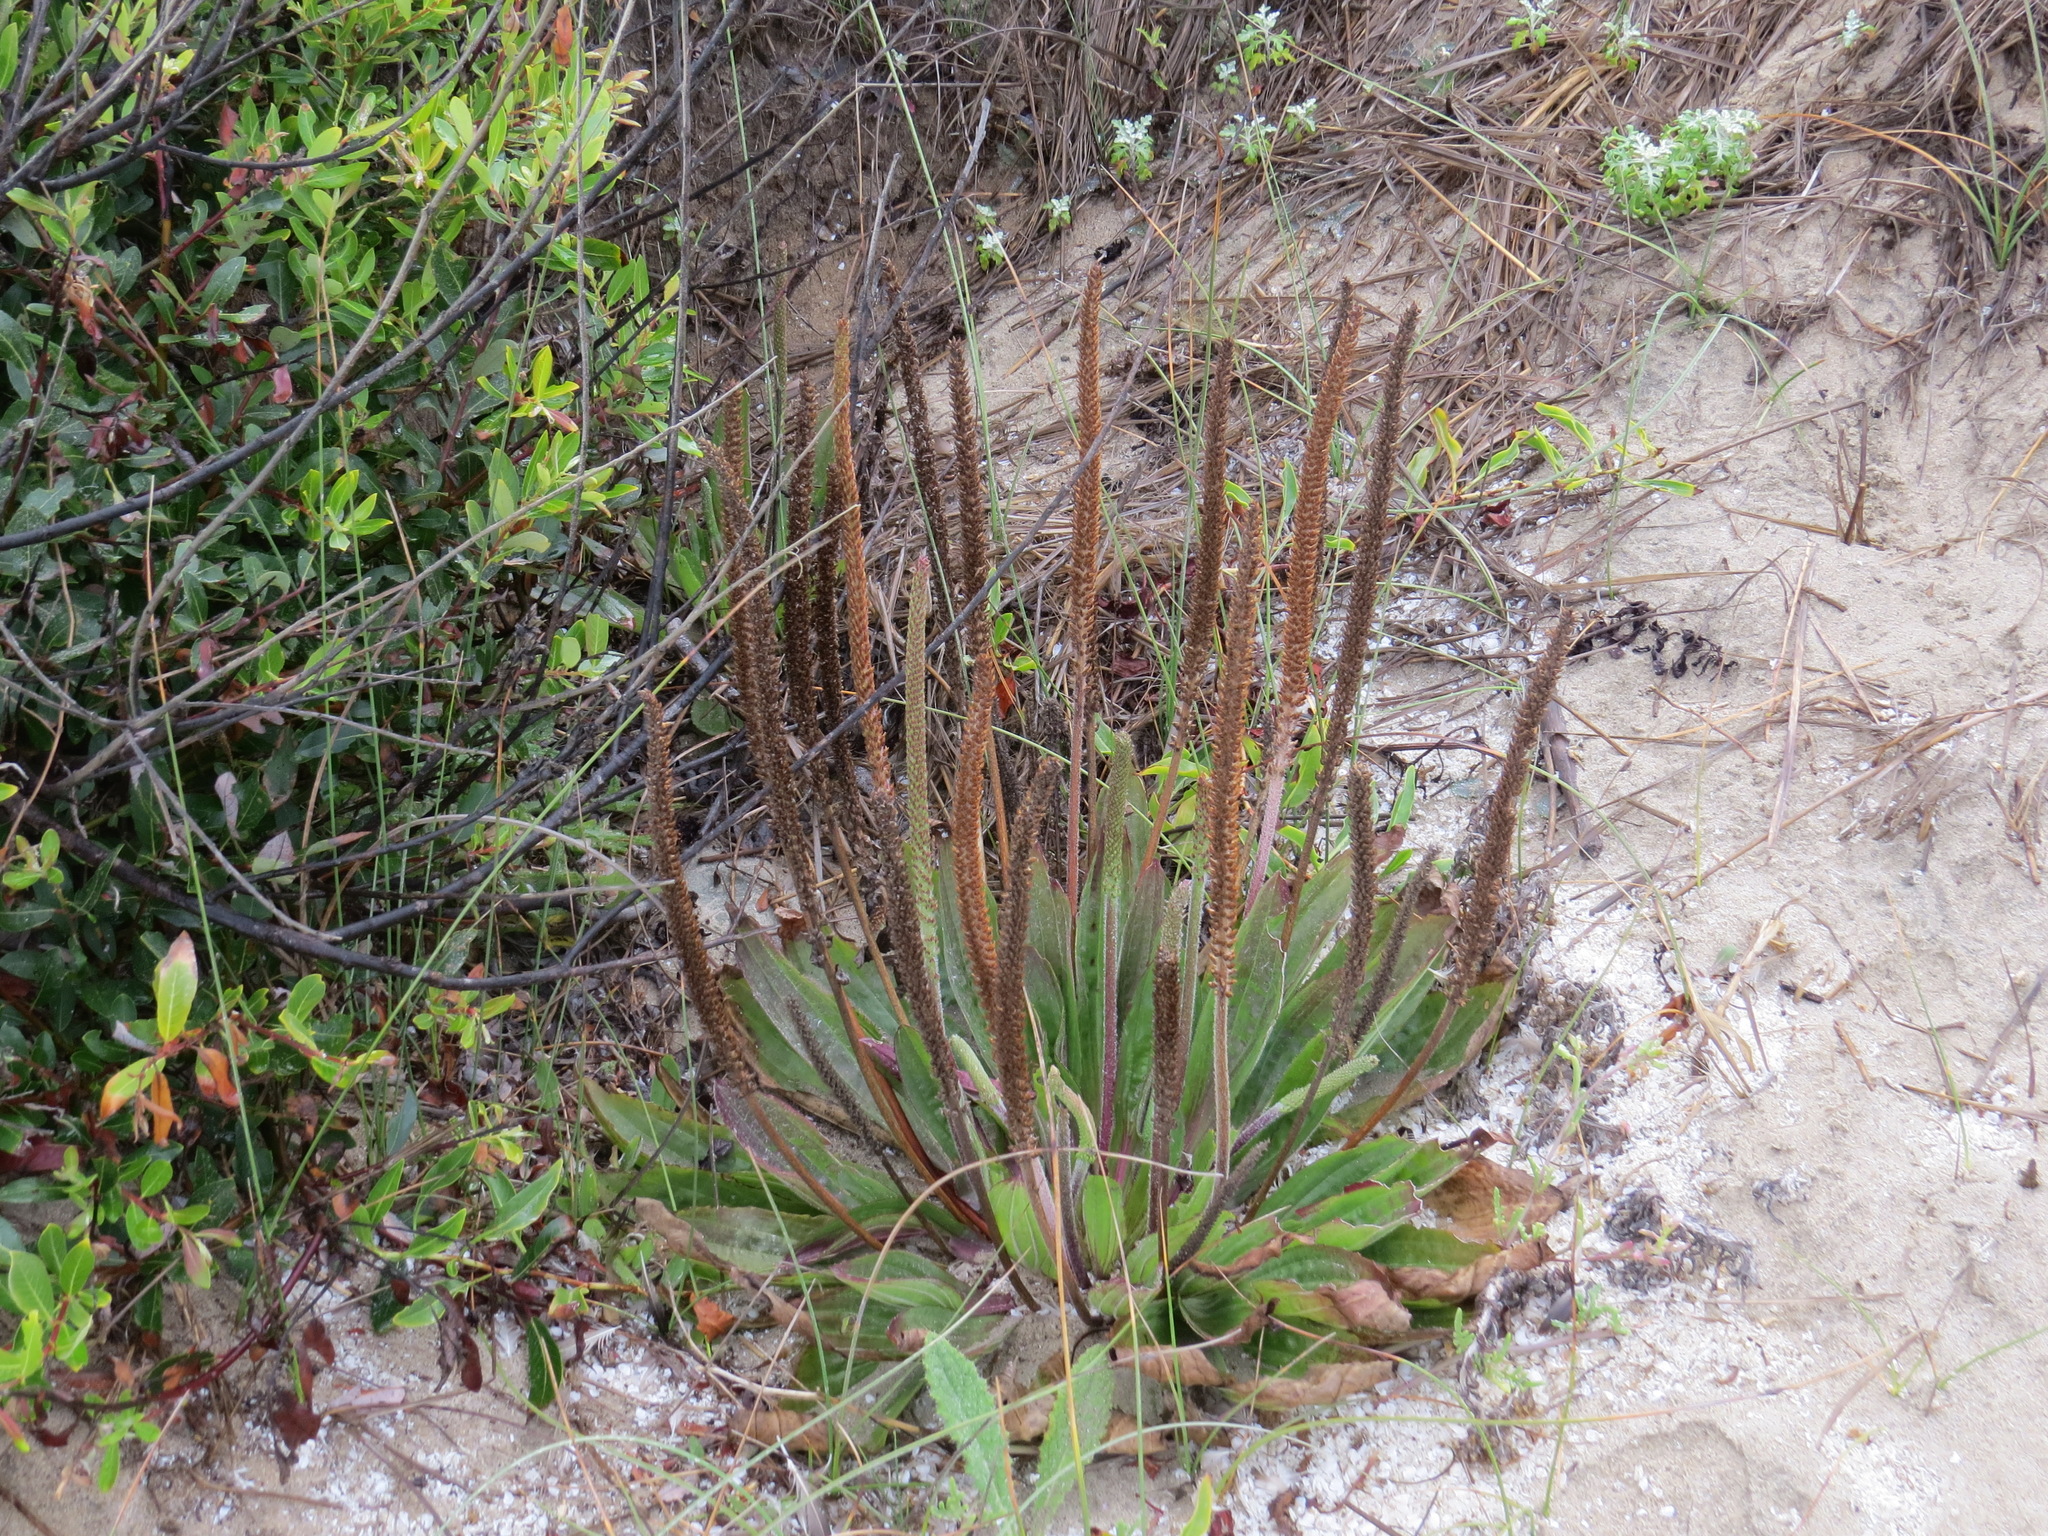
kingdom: Plantae
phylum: Tracheophyta
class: Magnoliopsida
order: Lamiales
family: Plantaginaceae
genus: Plantago
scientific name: Plantago subnuda
